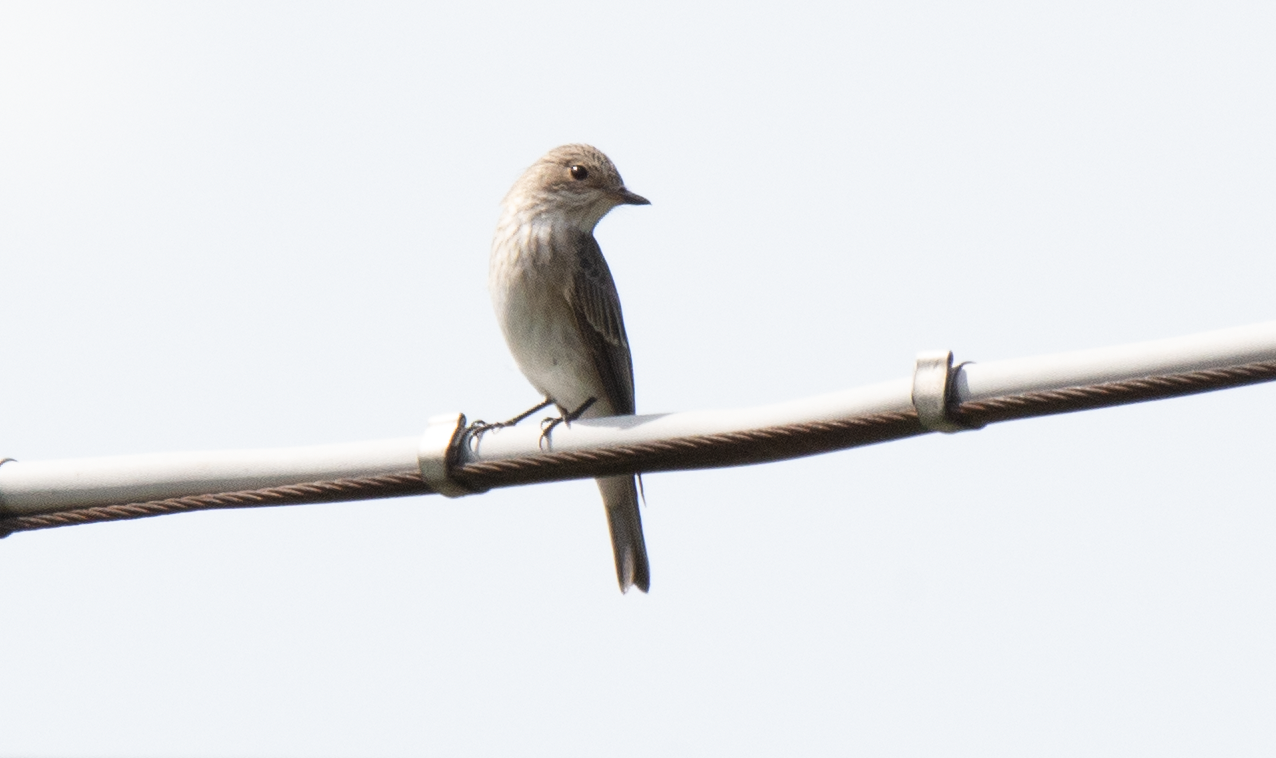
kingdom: Animalia
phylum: Chordata
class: Aves
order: Passeriformes
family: Muscicapidae
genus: Muscicapa
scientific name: Muscicapa striata
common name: Spotted flycatcher
